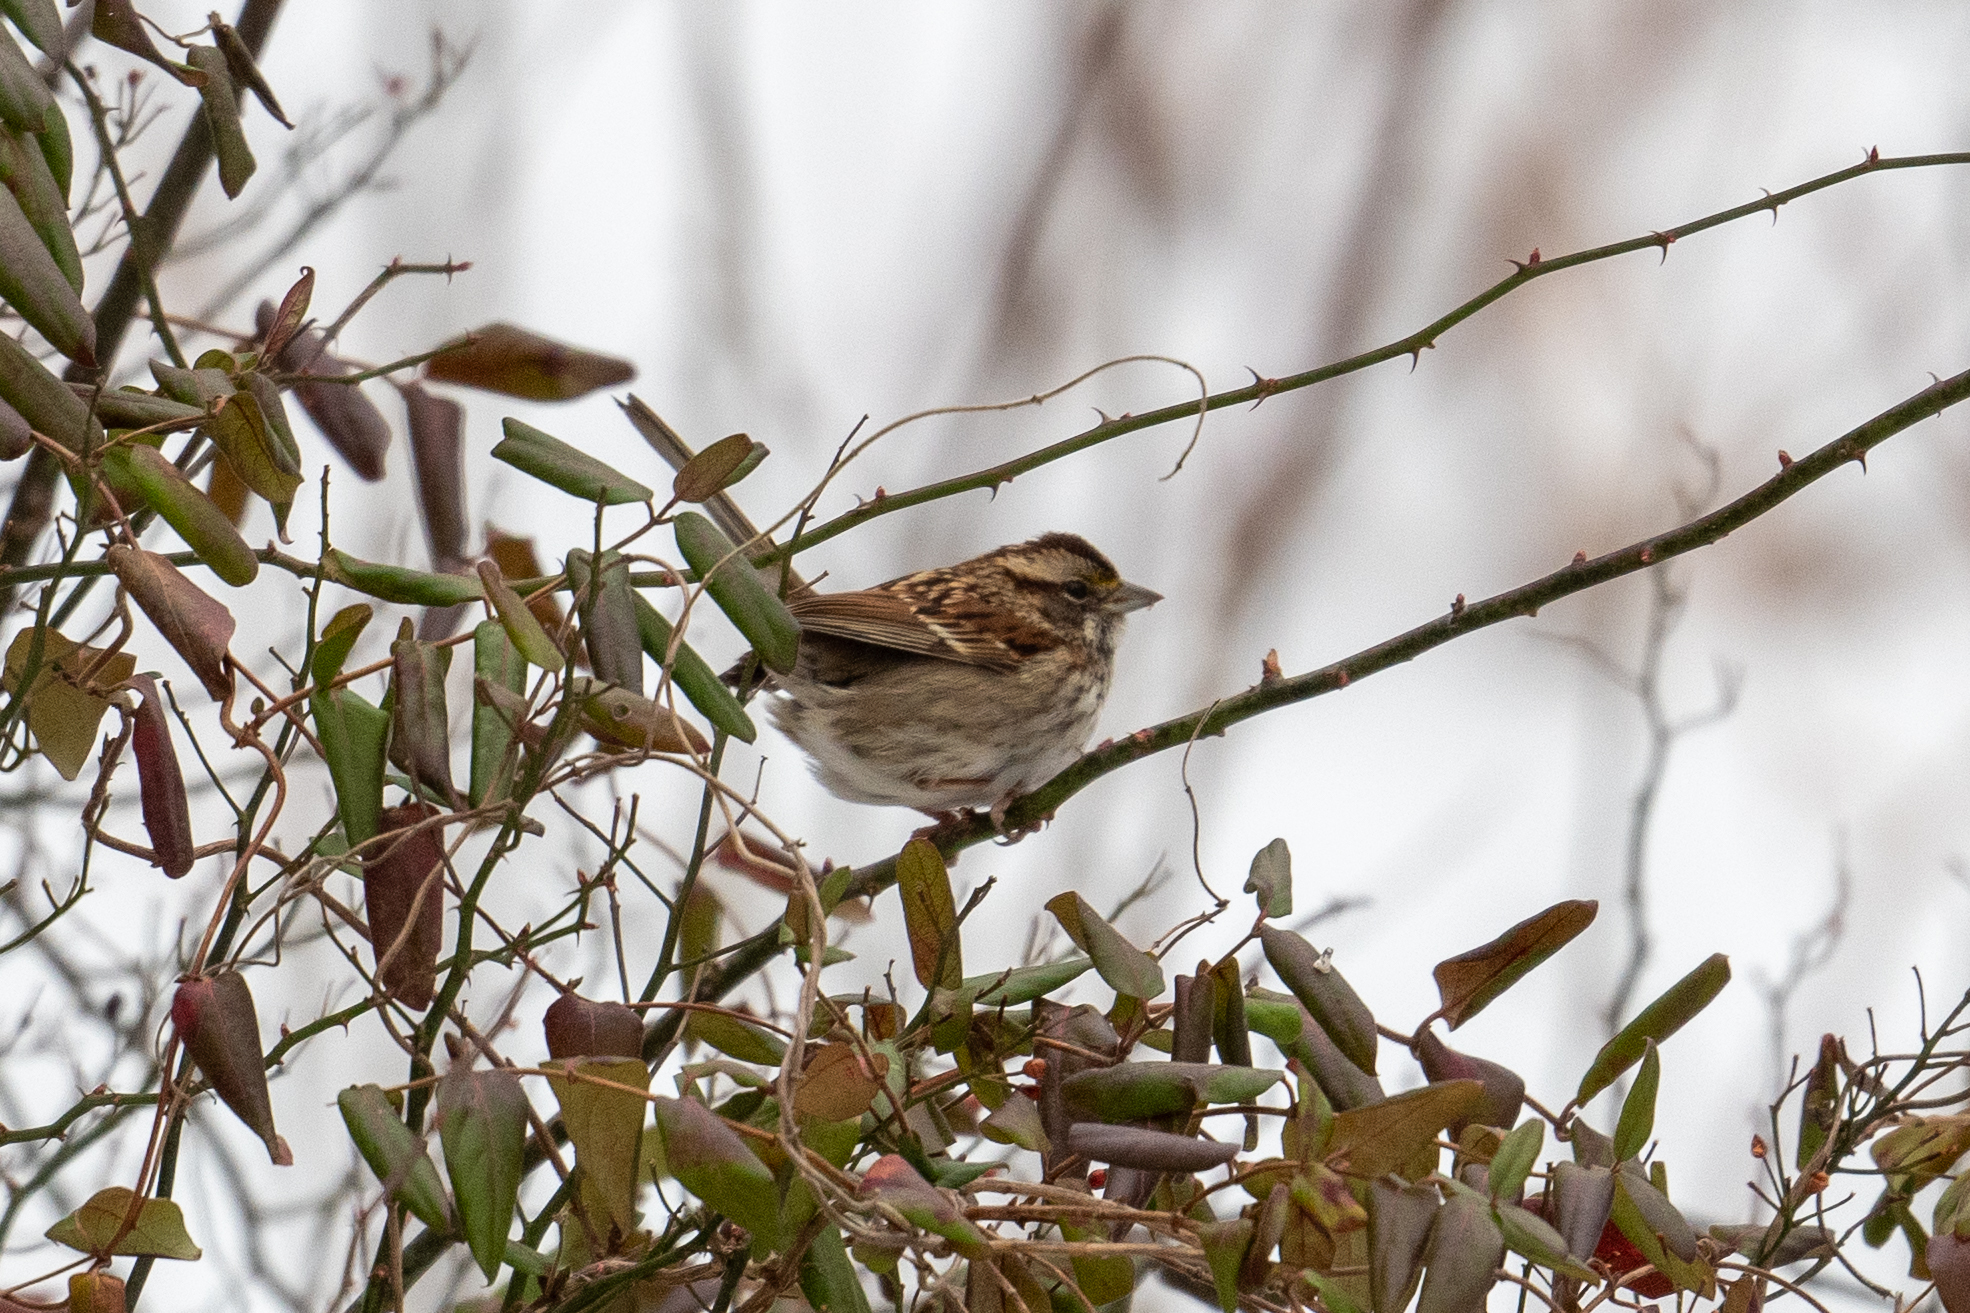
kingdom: Animalia
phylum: Chordata
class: Aves
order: Passeriformes
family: Passerellidae
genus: Zonotrichia
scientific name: Zonotrichia albicollis
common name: White-throated sparrow
